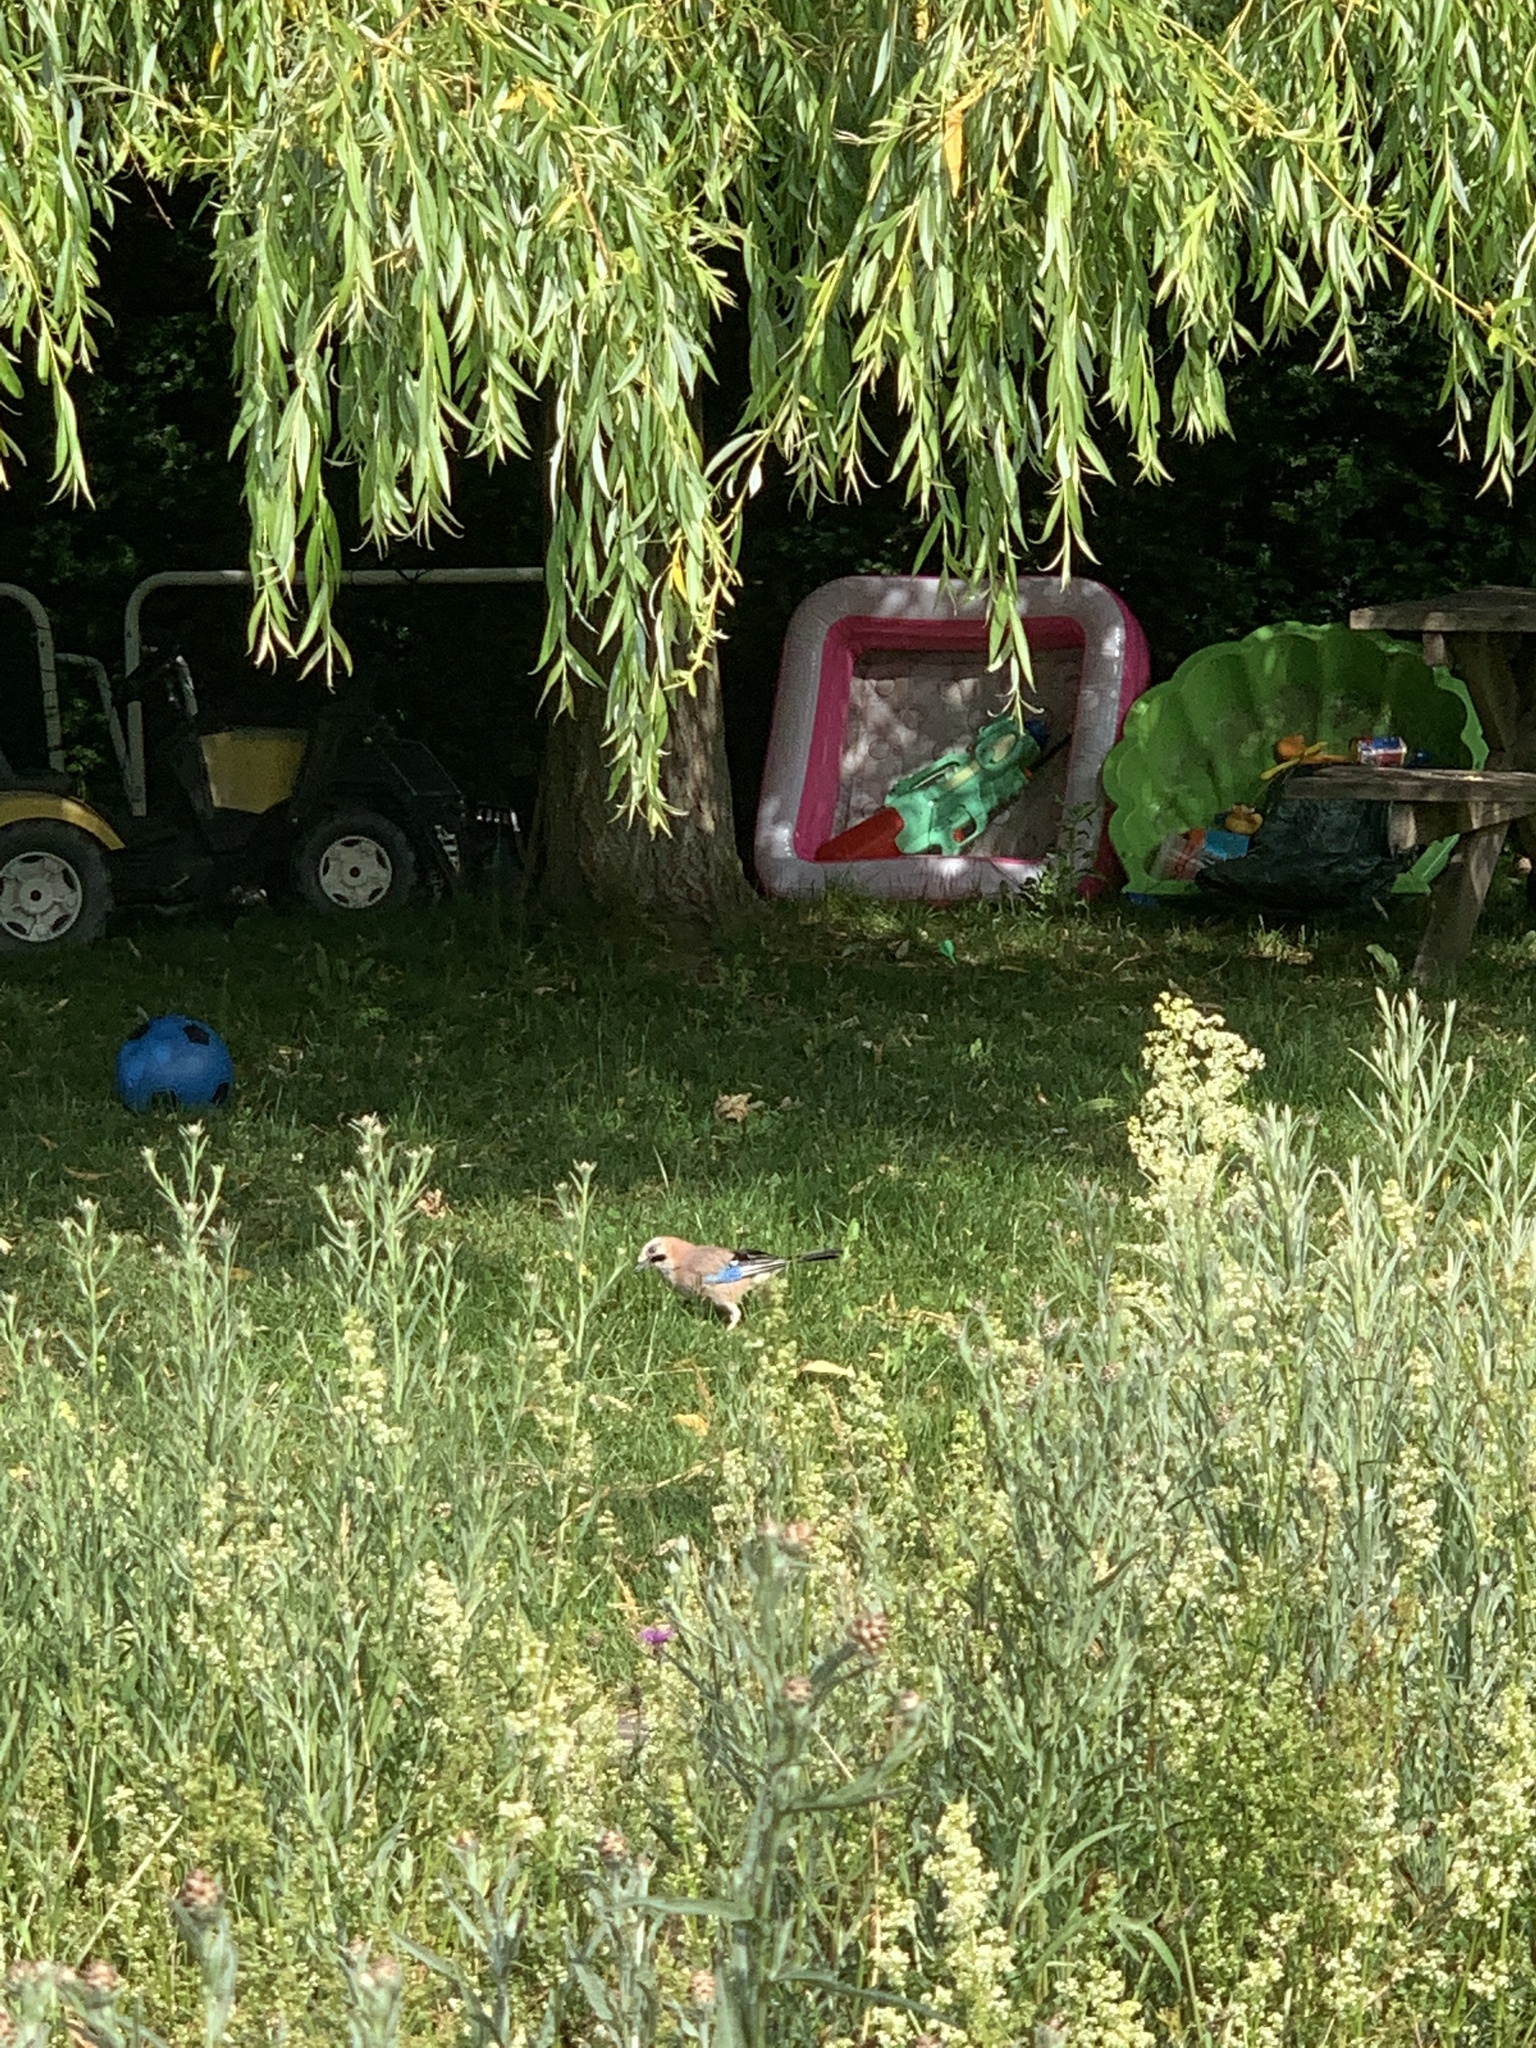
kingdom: Animalia
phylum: Chordata
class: Aves
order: Passeriformes
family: Corvidae
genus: Garrulus
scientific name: Garrulus glandarius
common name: Eurasian jay
